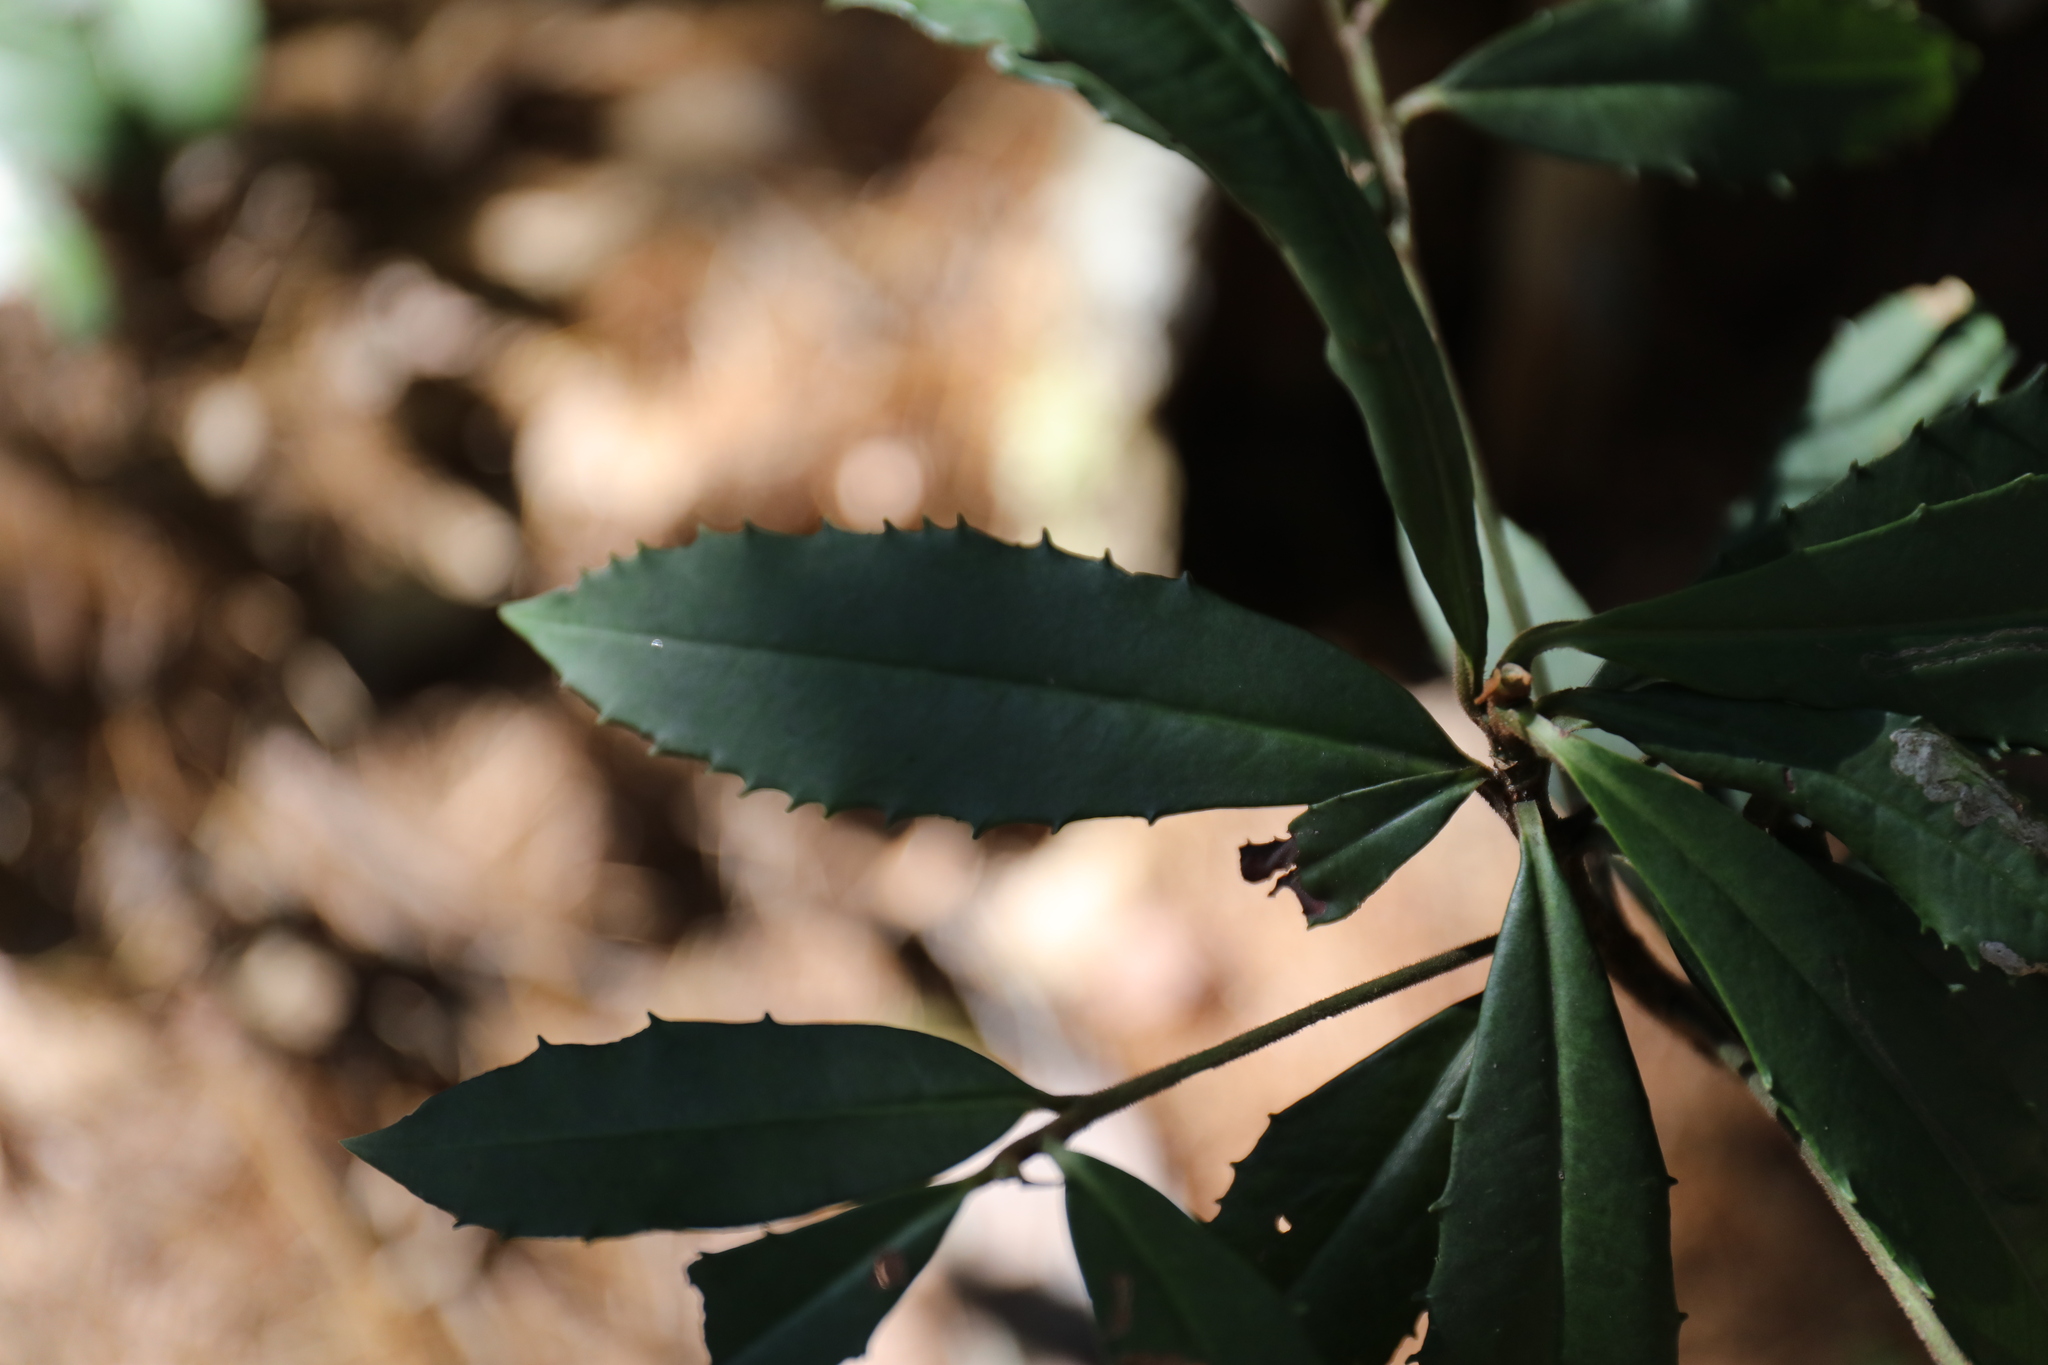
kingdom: Plantae
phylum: Tracheophyta
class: Magnoliopsida
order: Ericales
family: Primulaceae
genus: Ardisia
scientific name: Ardisia cornudentata
